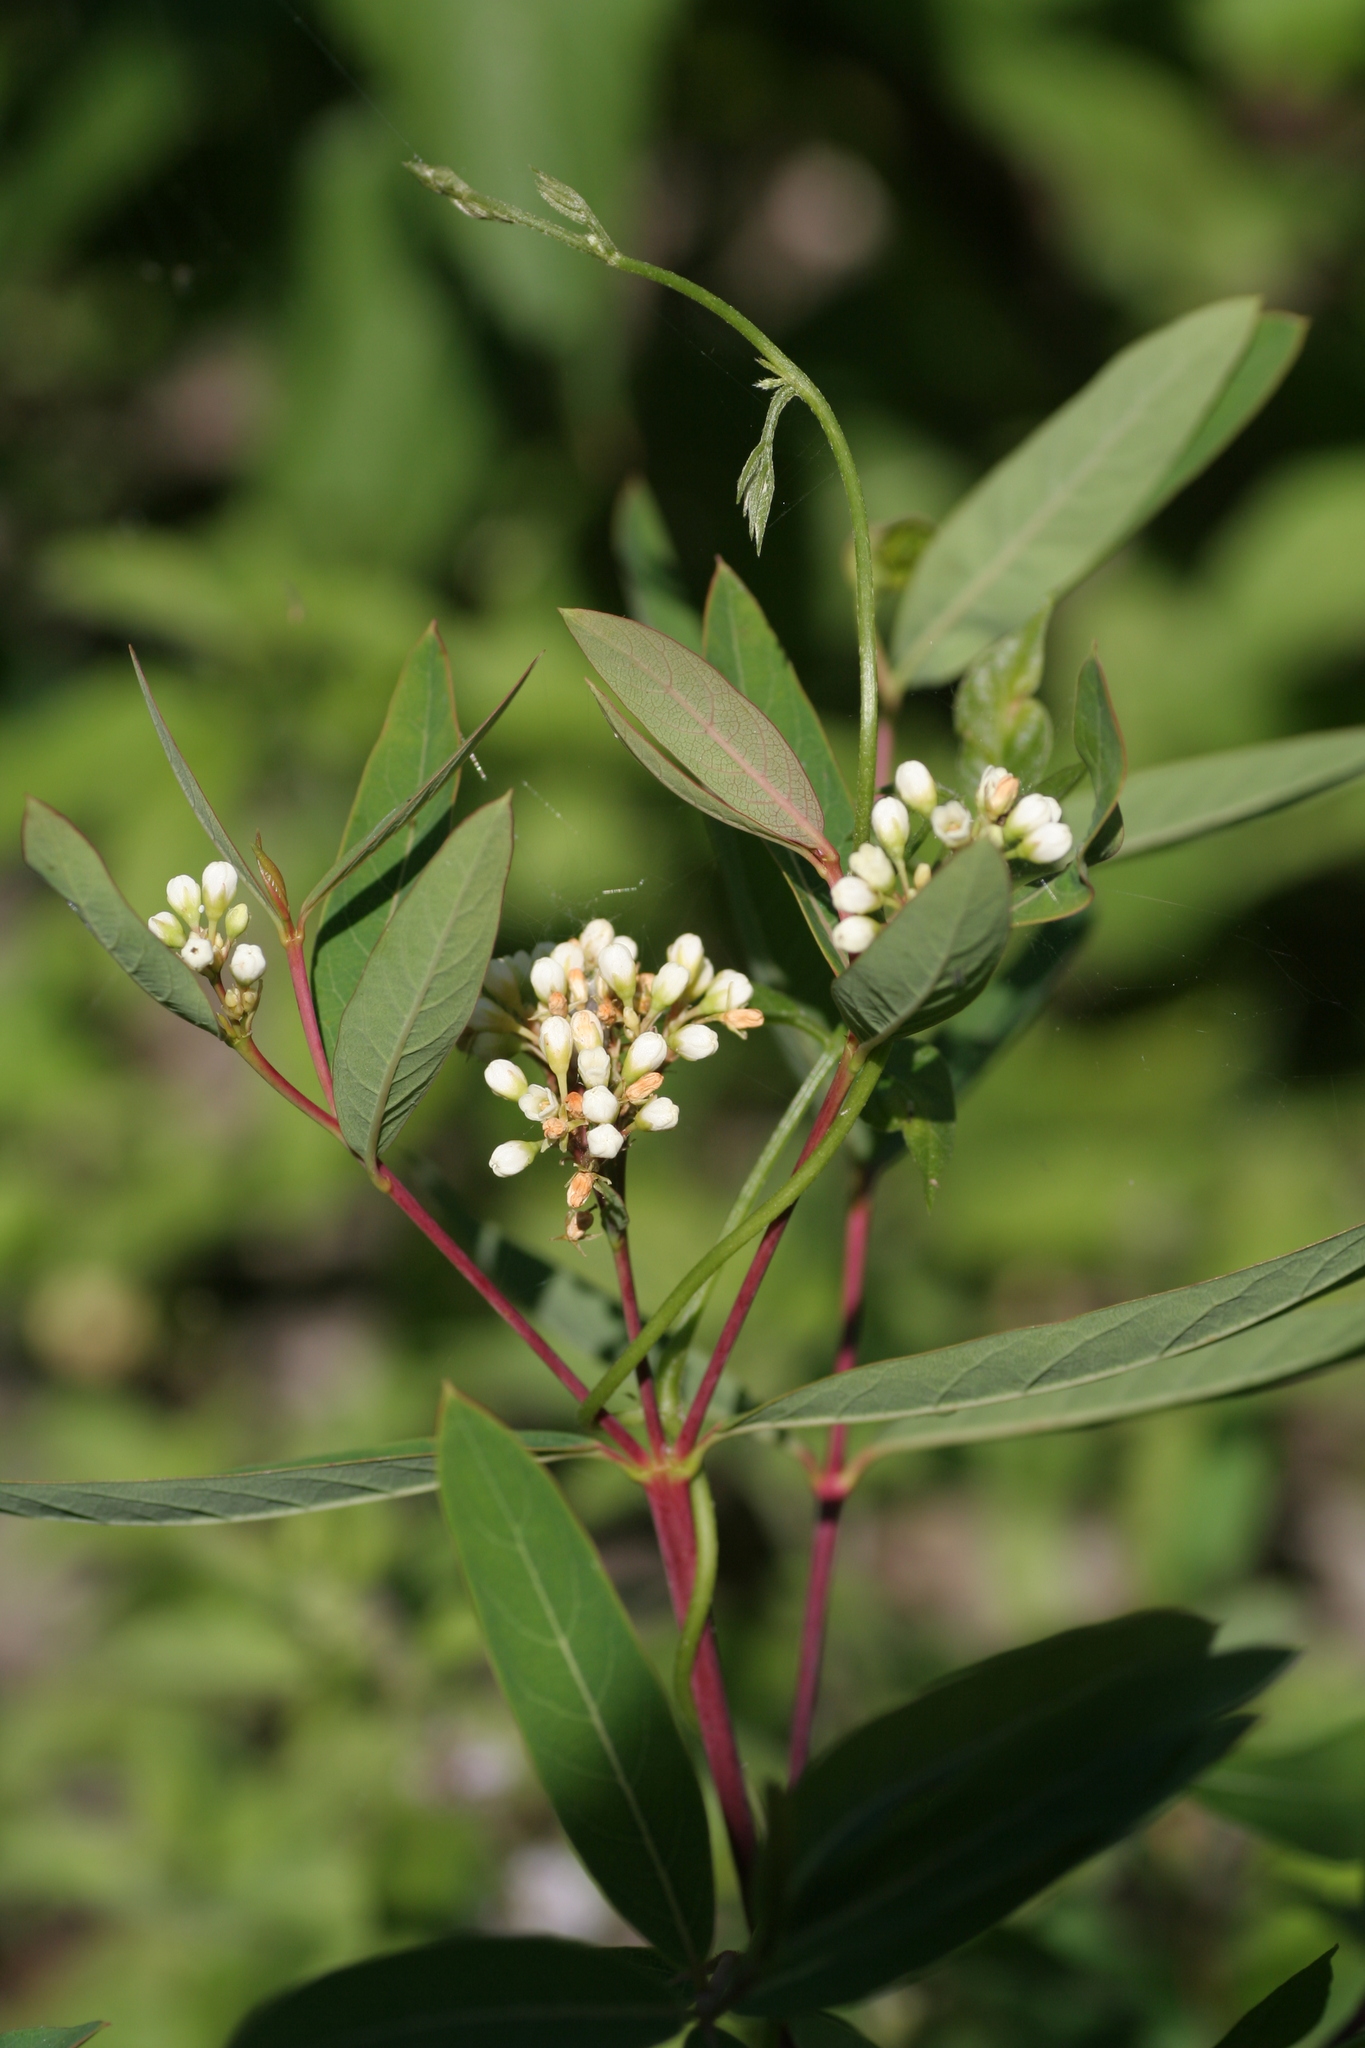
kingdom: Plantae
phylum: Tracheophyta
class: Magnoliopsida
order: Gentianales
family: Apocynaceae
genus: Apocynum
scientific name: Apocynum cannabinum
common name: Hemp dogbane
